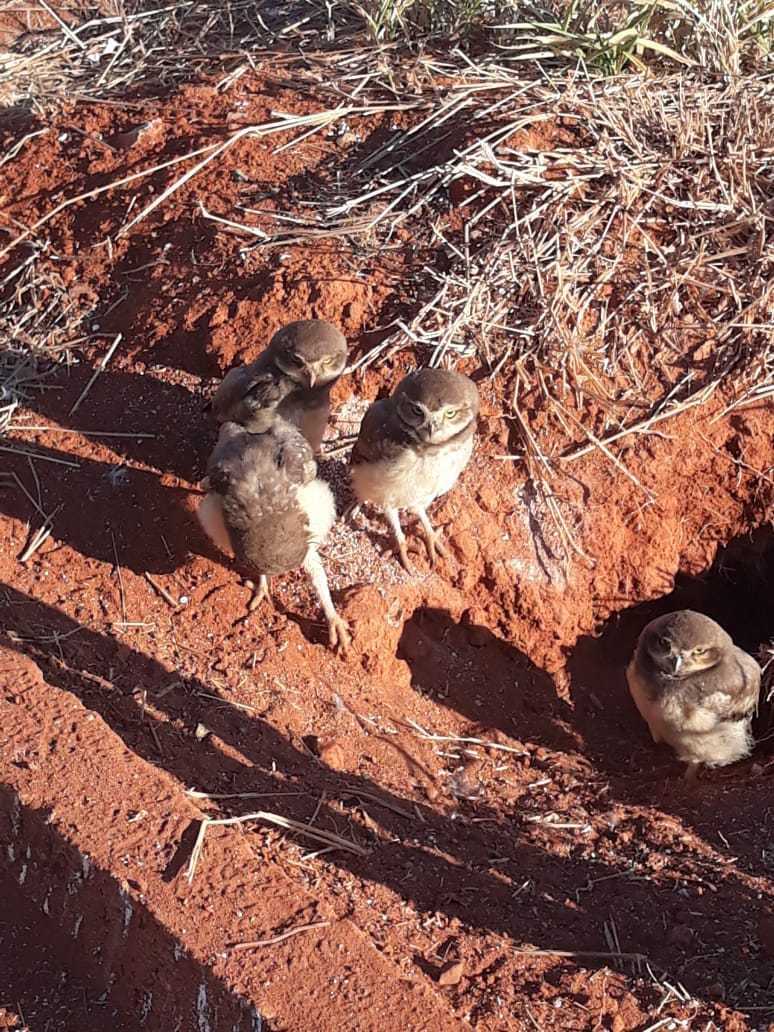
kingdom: Animalia
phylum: Chordata
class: Aves
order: Strigiformes
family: Strigidae
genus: Athene
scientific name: Athene cunicularia
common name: Burrowing owl
